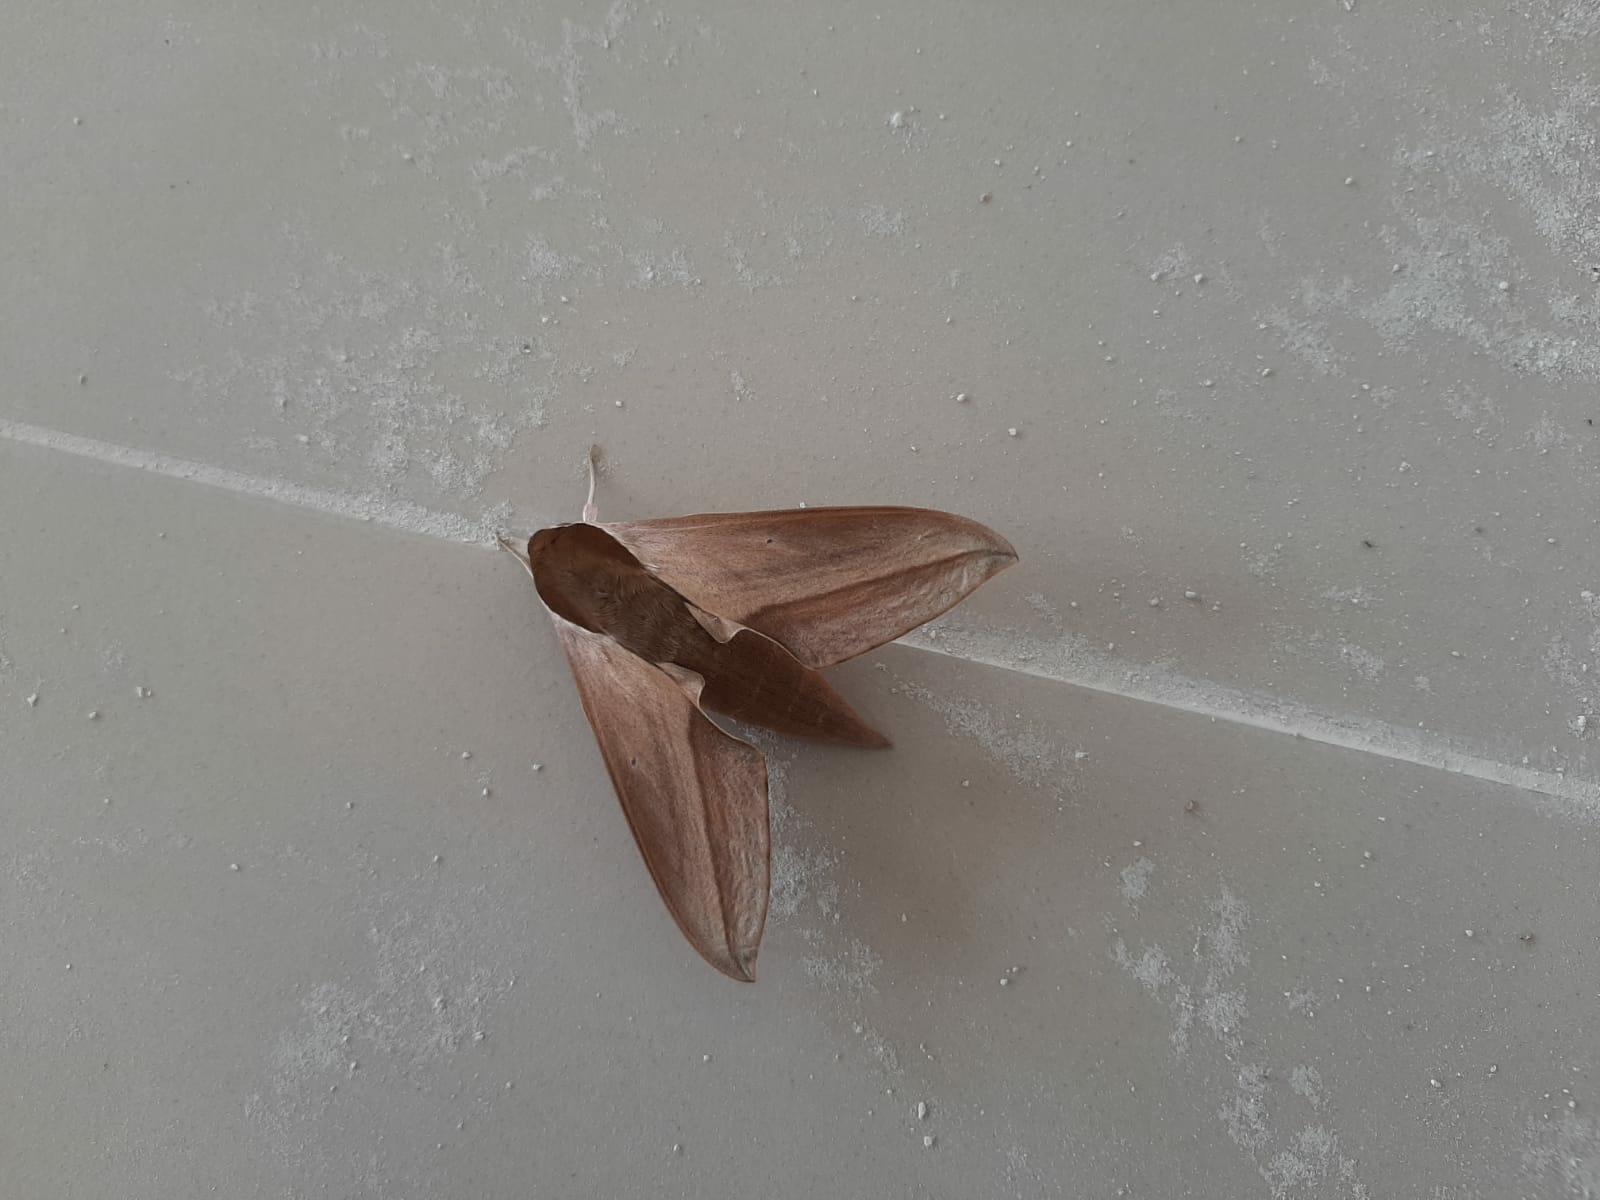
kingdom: Animalia
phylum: Arthropoda
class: Insecta
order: Lepidoptera
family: Sphingidae
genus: Theretra
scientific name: Theretra alecto
